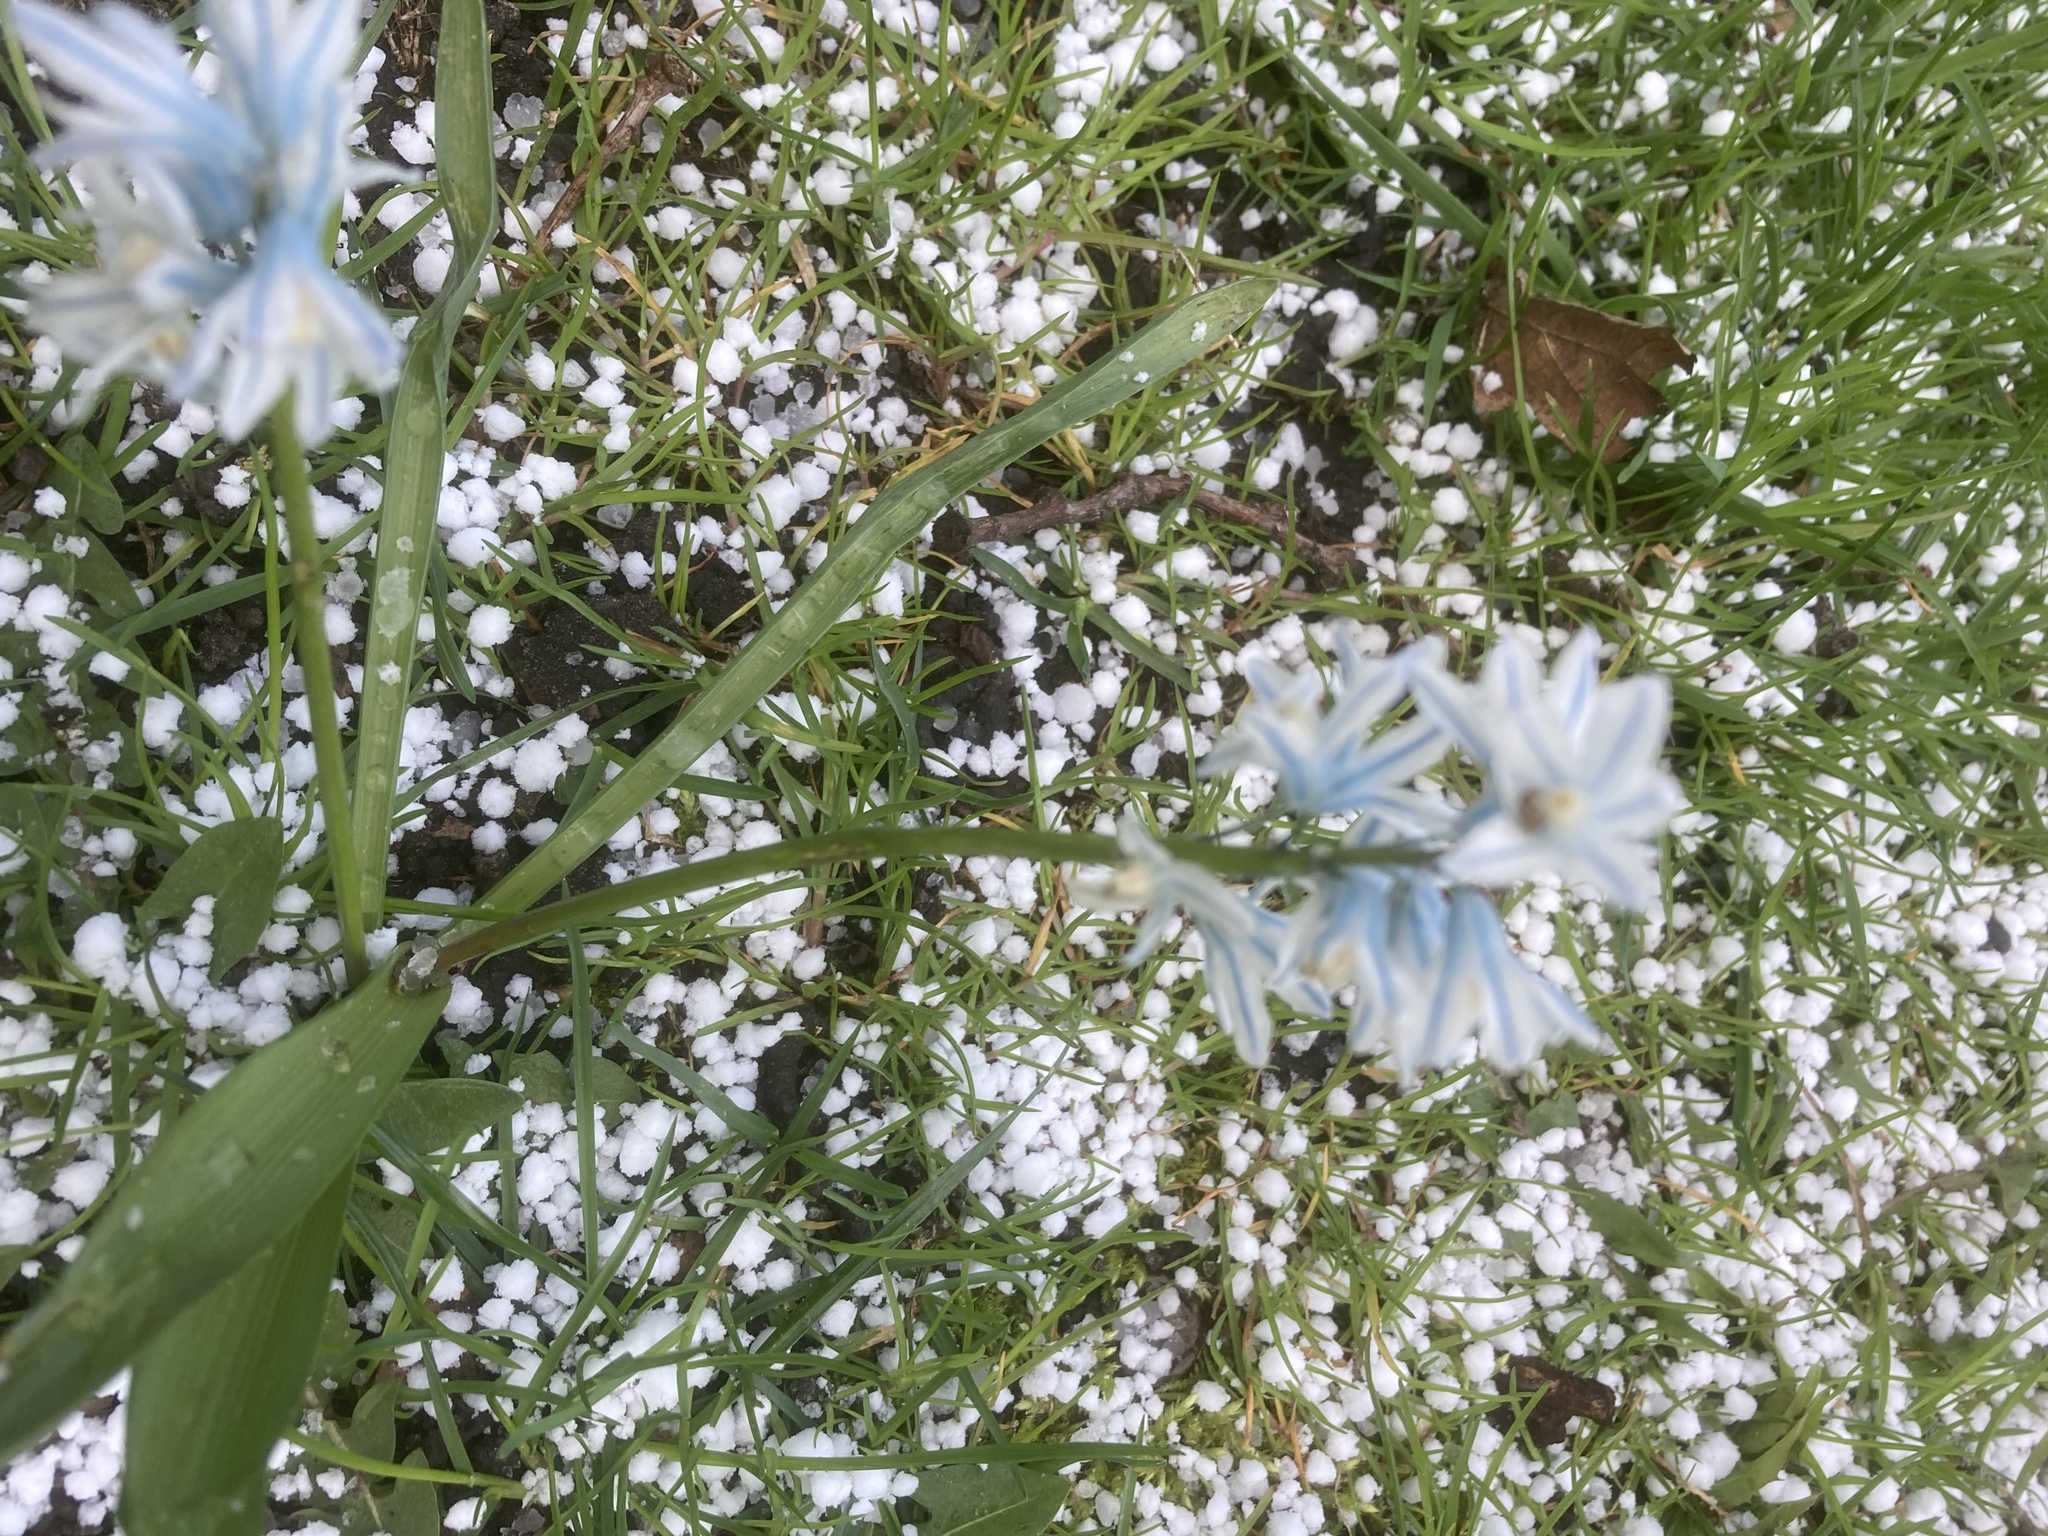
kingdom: Plantae
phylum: Tracheophyta
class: Liliopsida
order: Asparagales
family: Asparagaceae
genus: Puschkinia
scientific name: Puschkinia scilloides
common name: Striped squill
